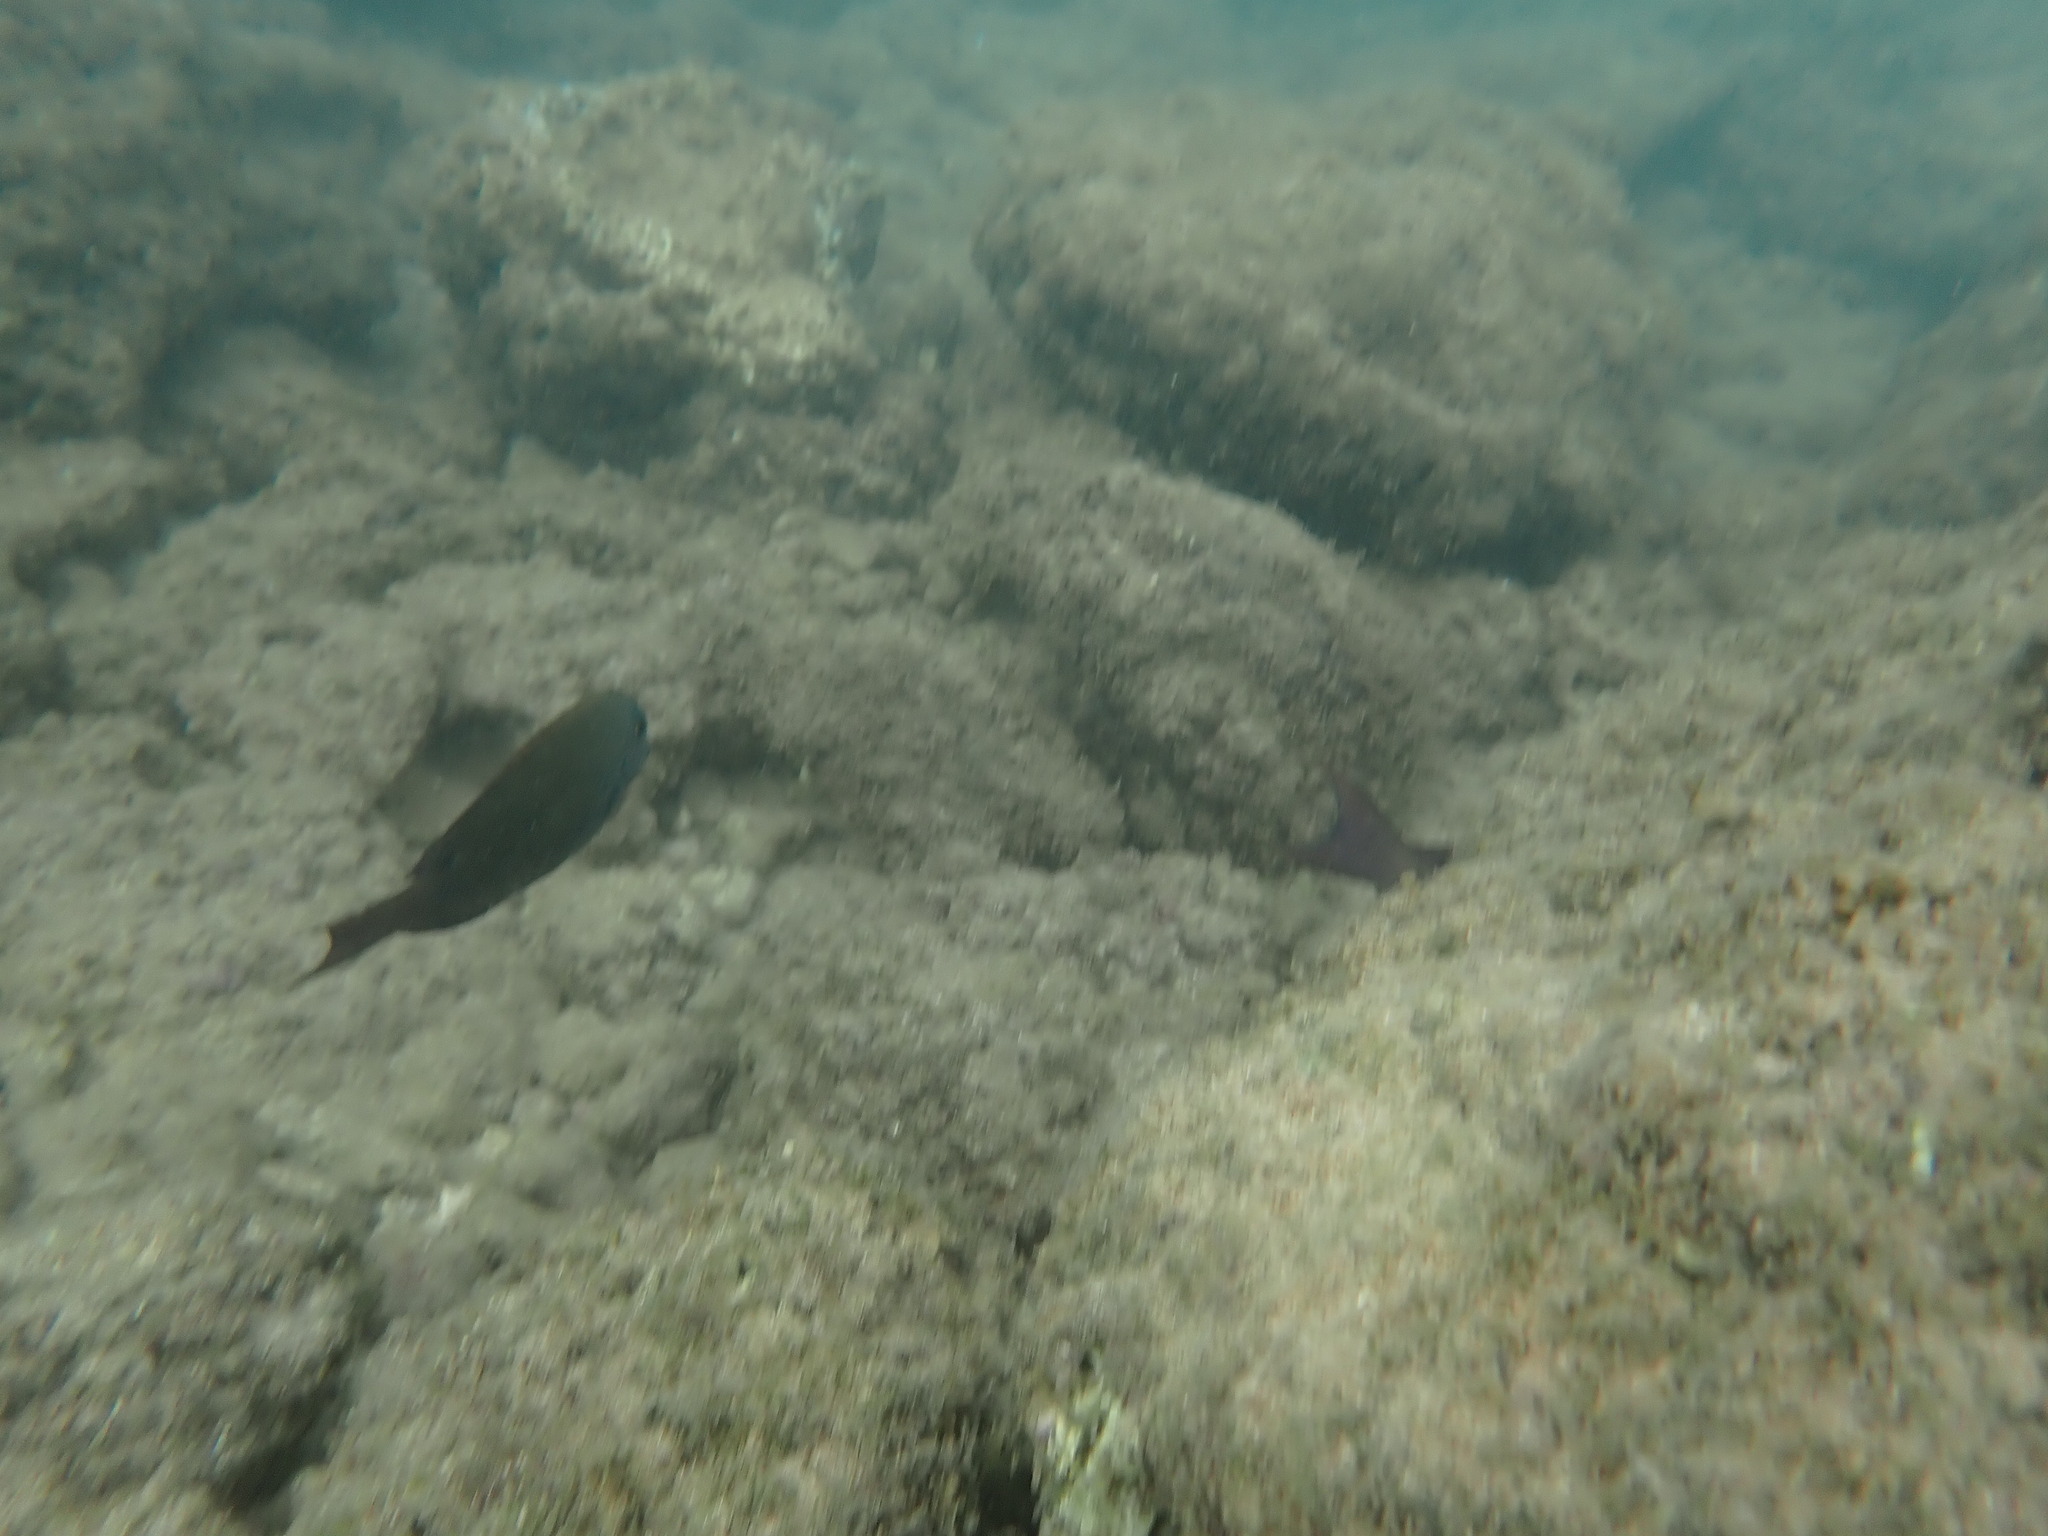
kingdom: Animalia
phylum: Chordata
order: Perciformes
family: Acanthuridae
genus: Acanthurus
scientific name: Acanthurus nigrofuscus
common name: Blackspot surgeonfish
